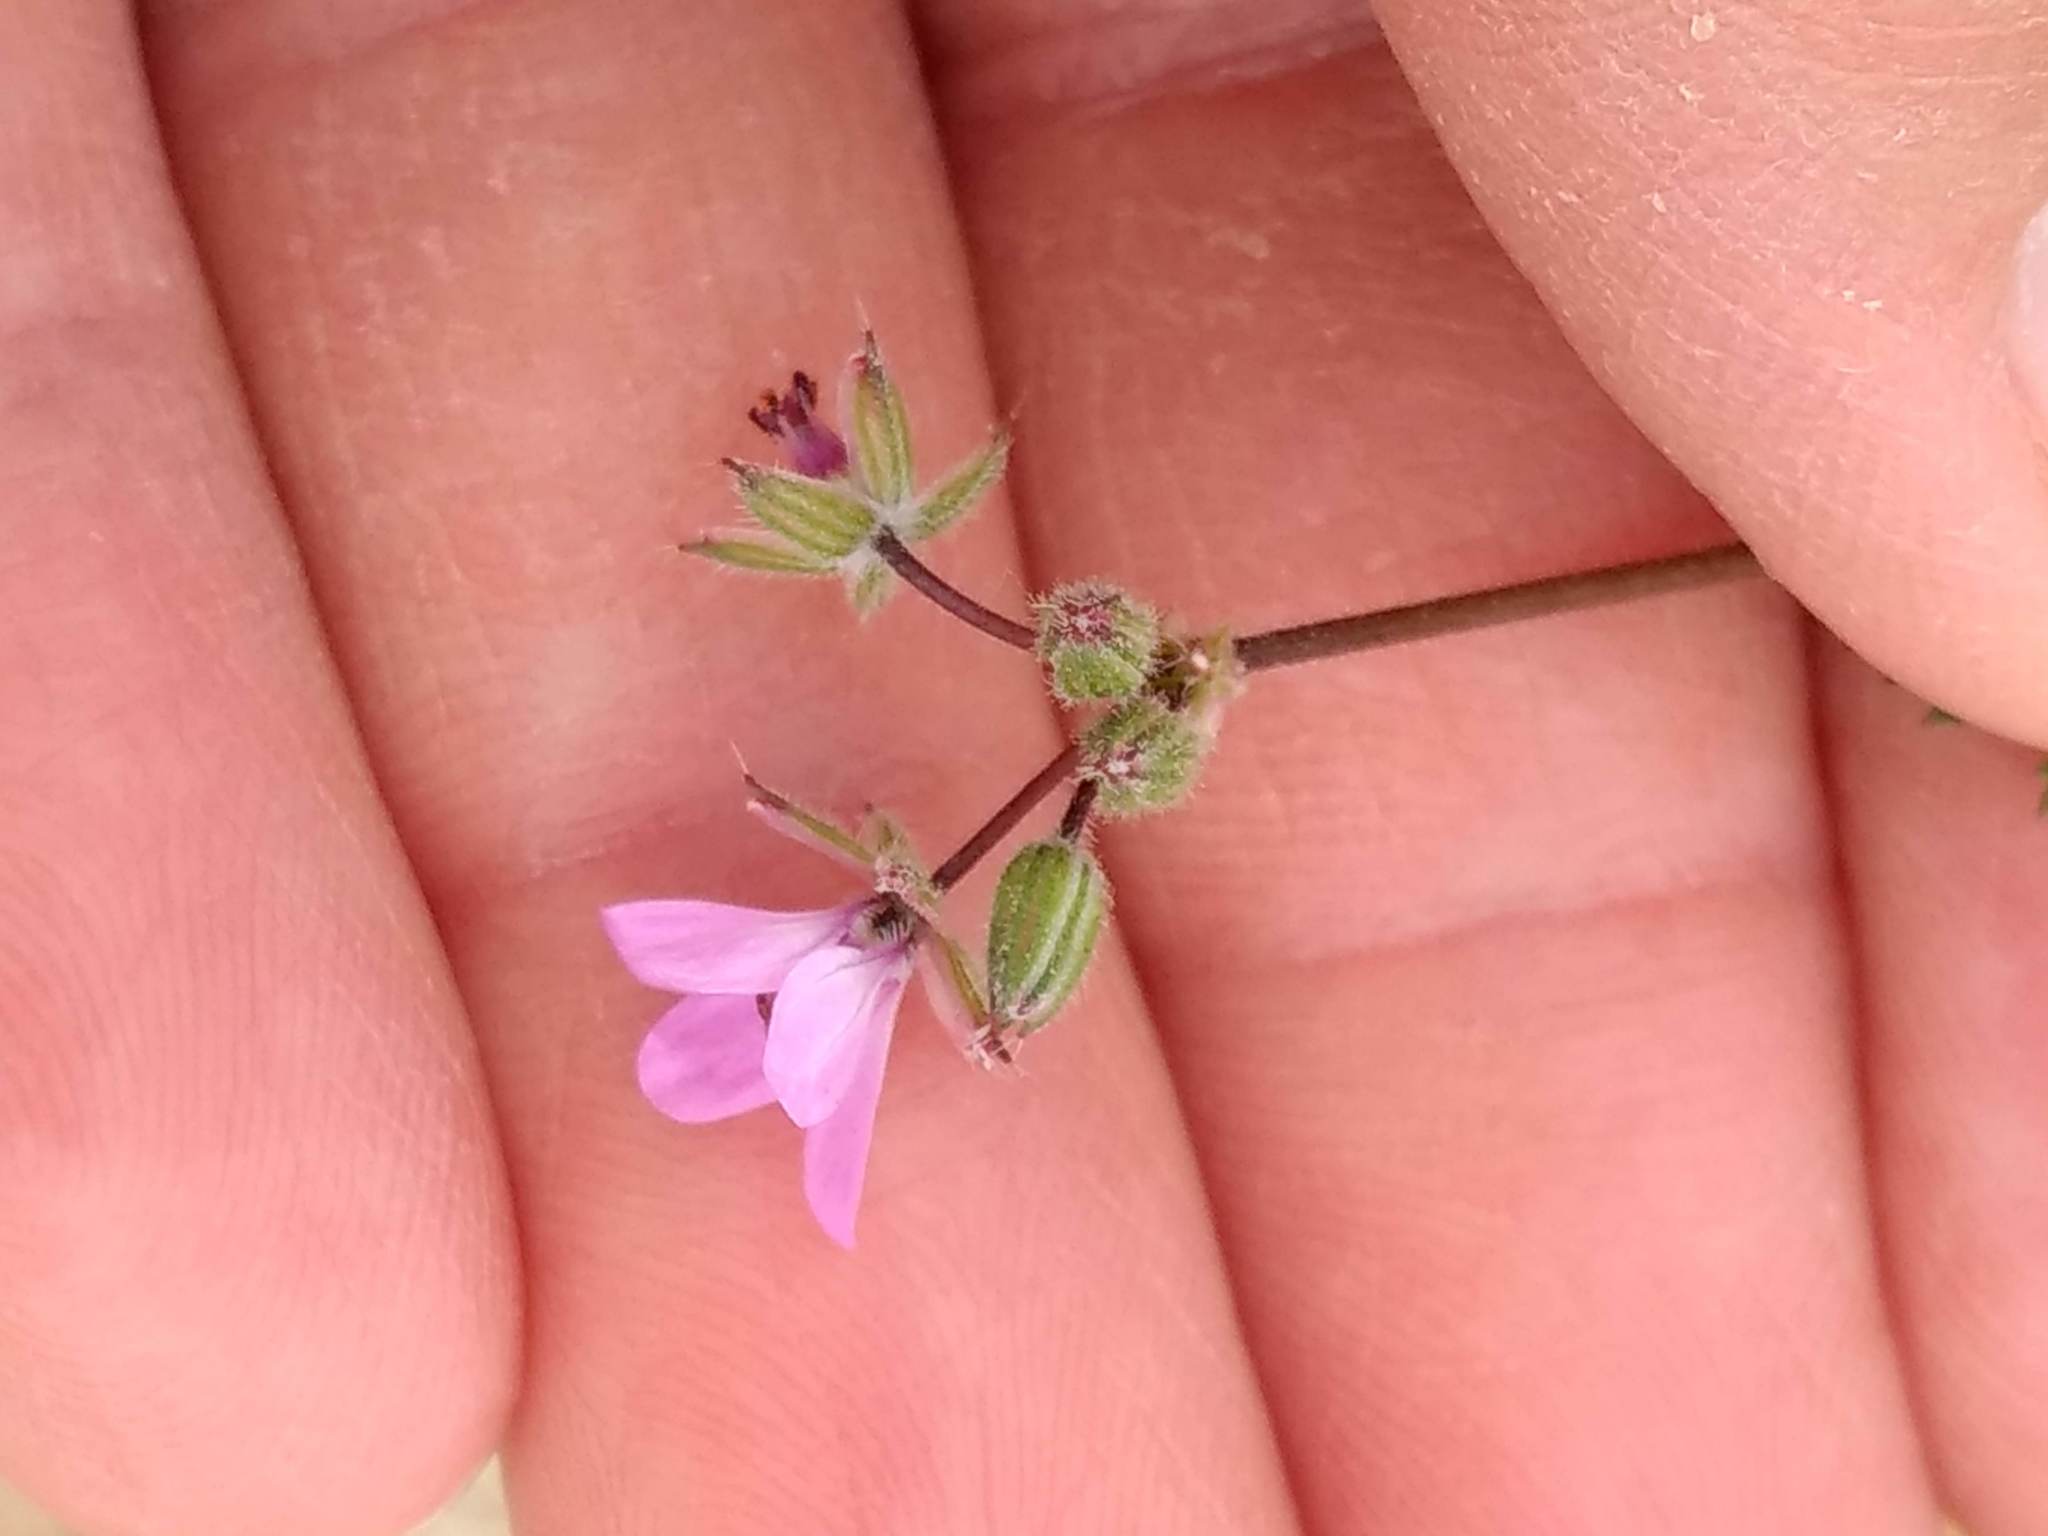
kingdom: Plantae
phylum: Tracheophyta
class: Magnoliopsida
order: Geraniales
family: Geraniaceae
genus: Erodium
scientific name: Erodium cicutarium
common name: Common stork's-bill
